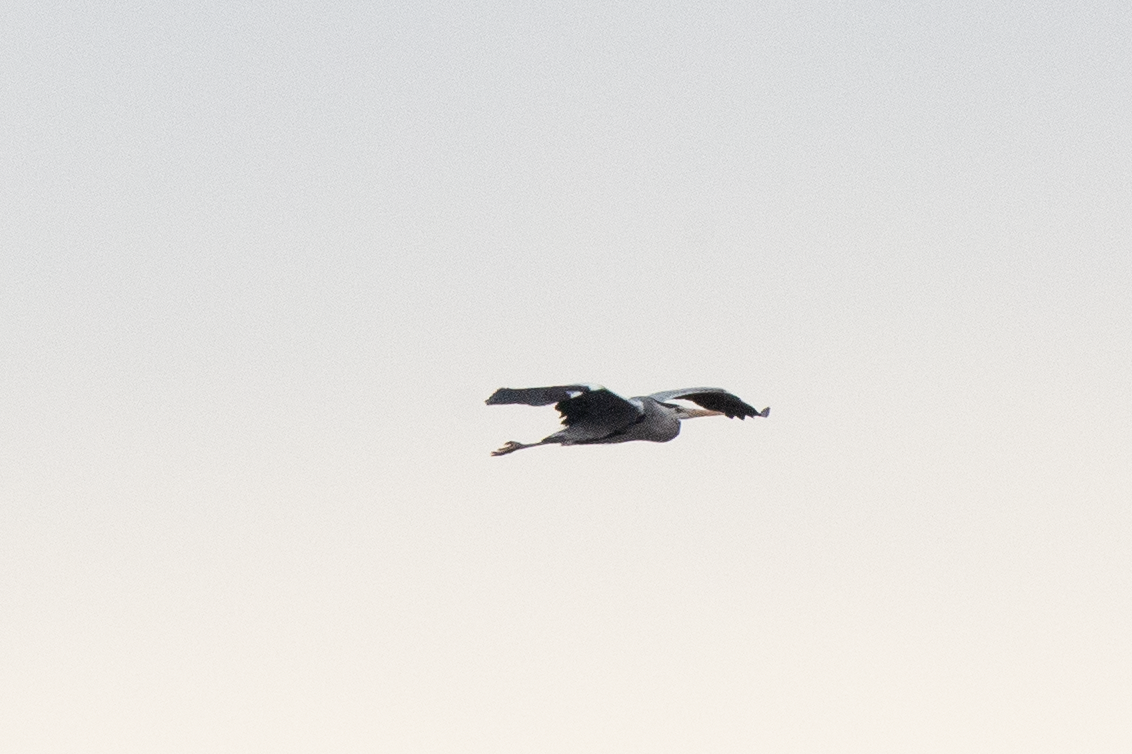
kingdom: Animalia
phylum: Chordata
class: Aves
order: Pelecaniformes
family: Ardeidae
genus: Ardea
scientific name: Ardea cinerea
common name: Grey heron
